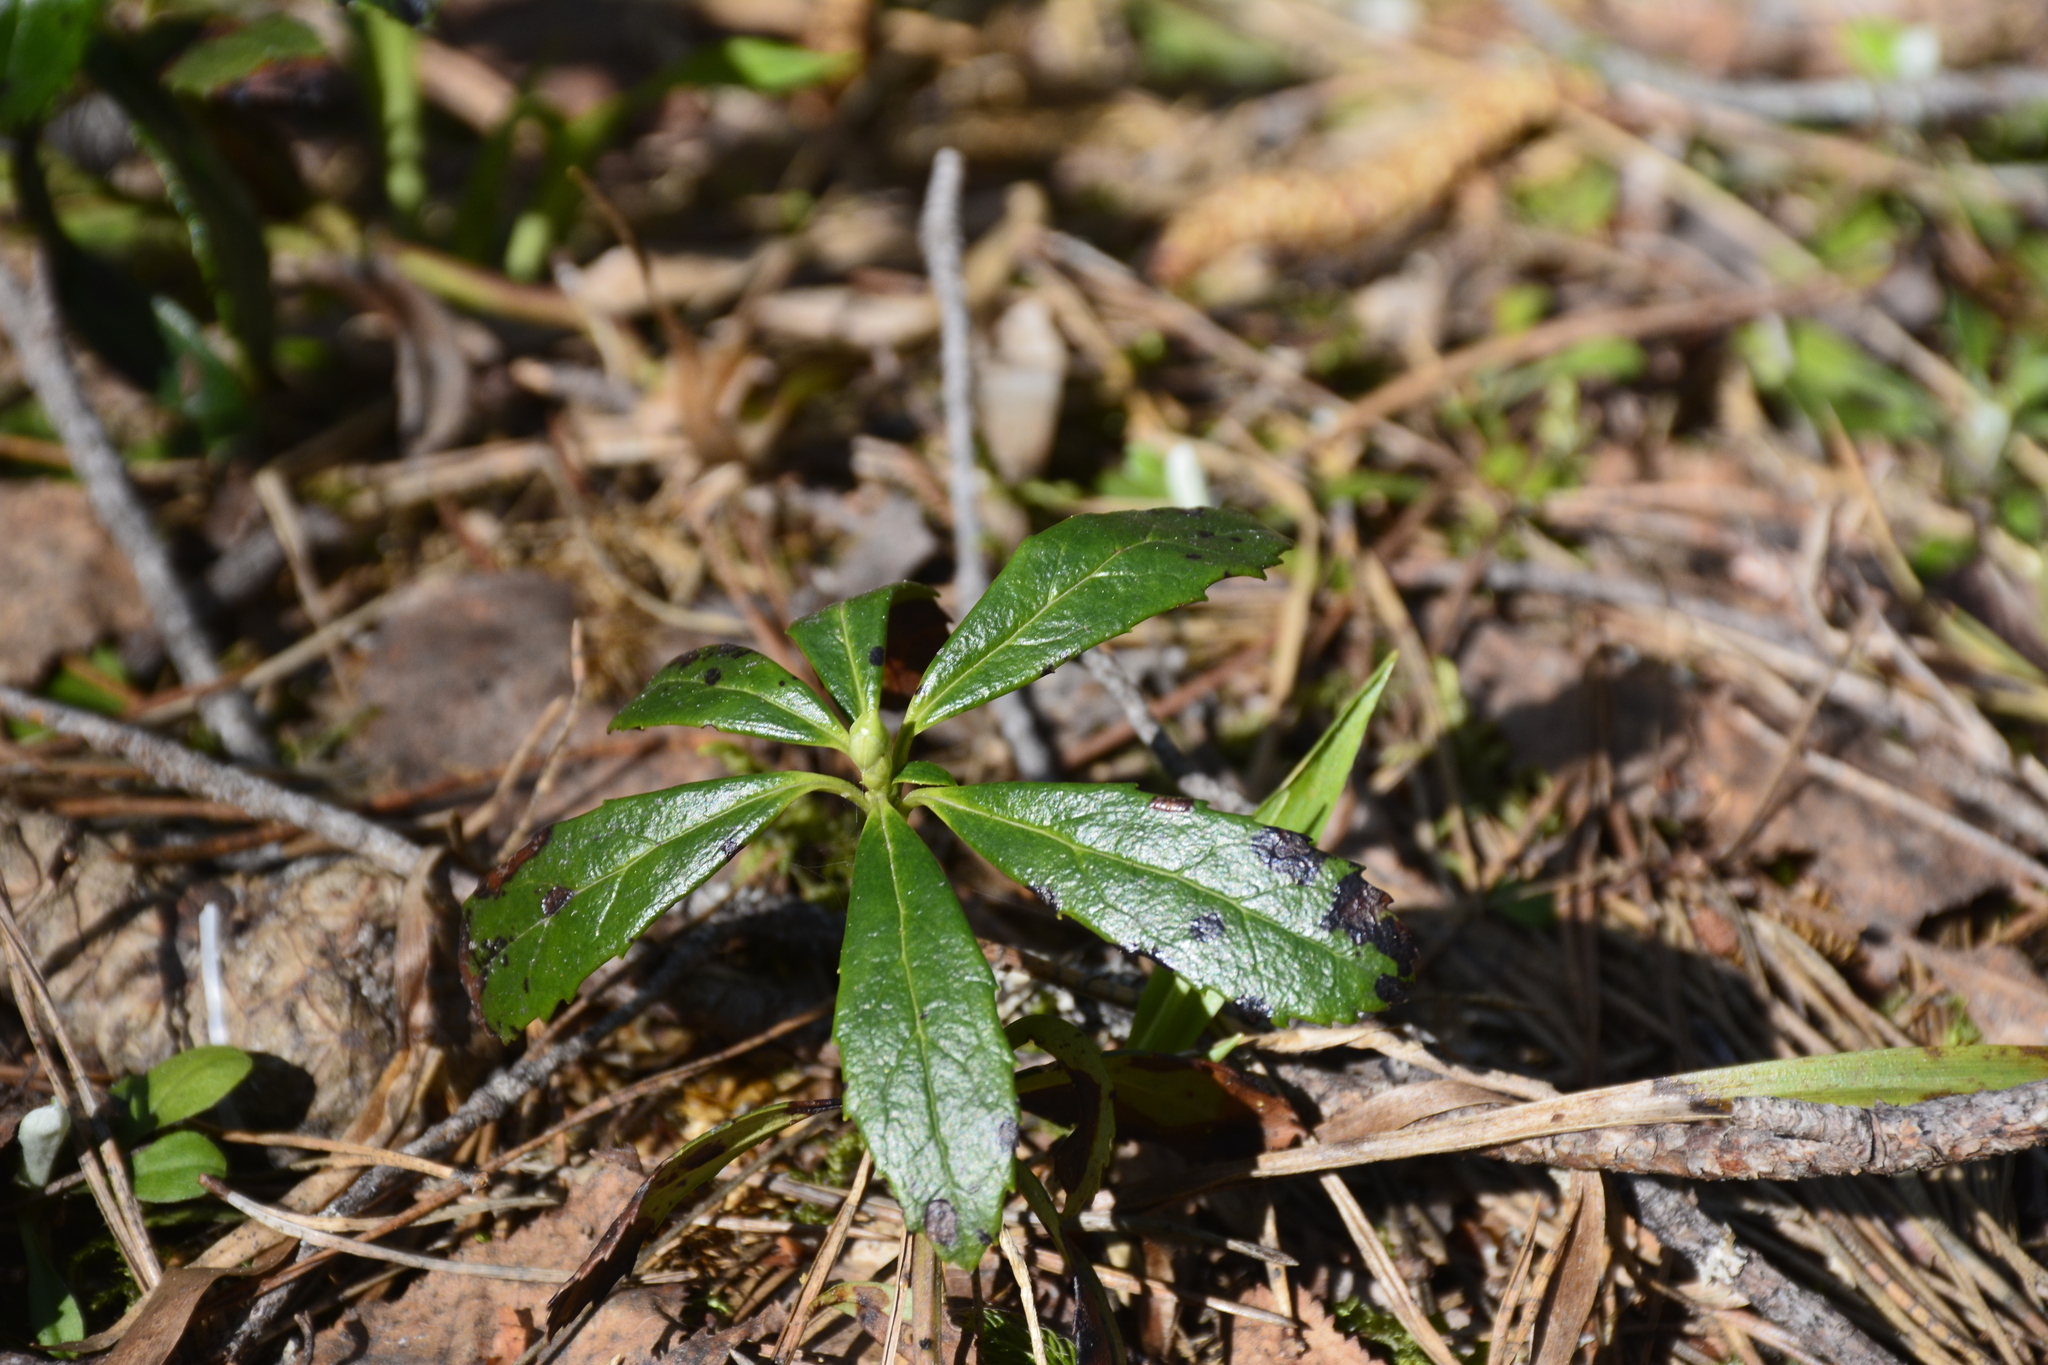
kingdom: Plantae
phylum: Tracheophyta
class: Magnoliopsida
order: Ericales
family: Ericaceae
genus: Chimaphila
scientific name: Chimaphila umbellata
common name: Pipsissewa
